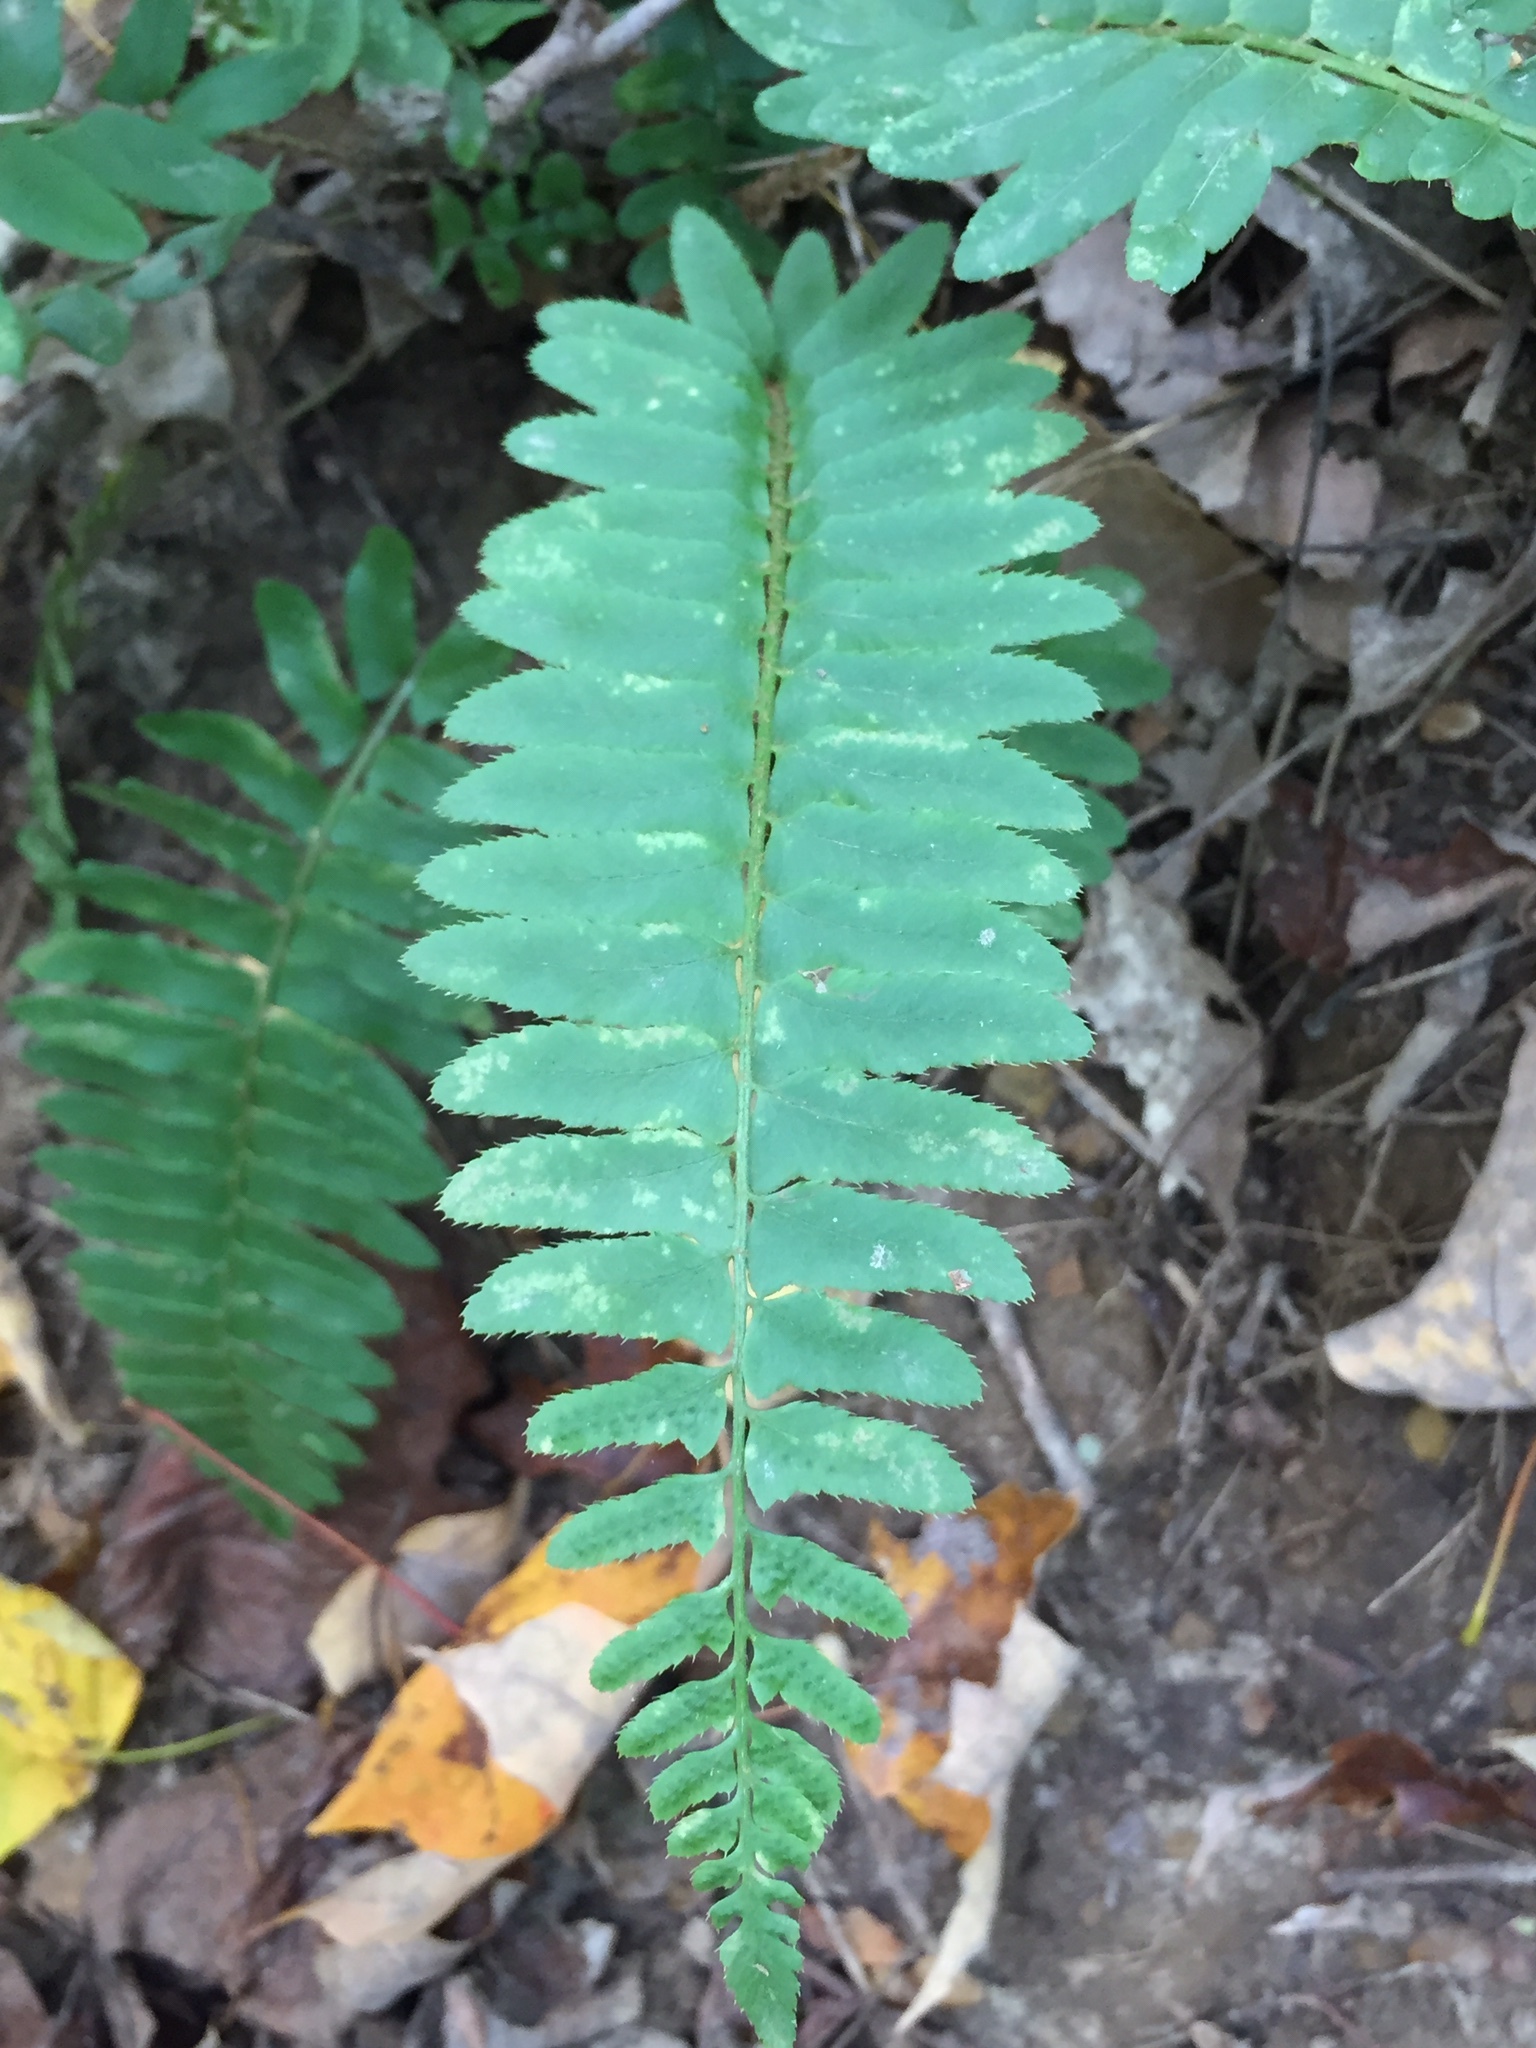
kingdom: Plantae
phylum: Tracheophyta
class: Polypodiopsida
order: Polypodiales
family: Dryopteridaceae
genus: Polystichum
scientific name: Polystichum acrostichoides
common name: Christmas fern
